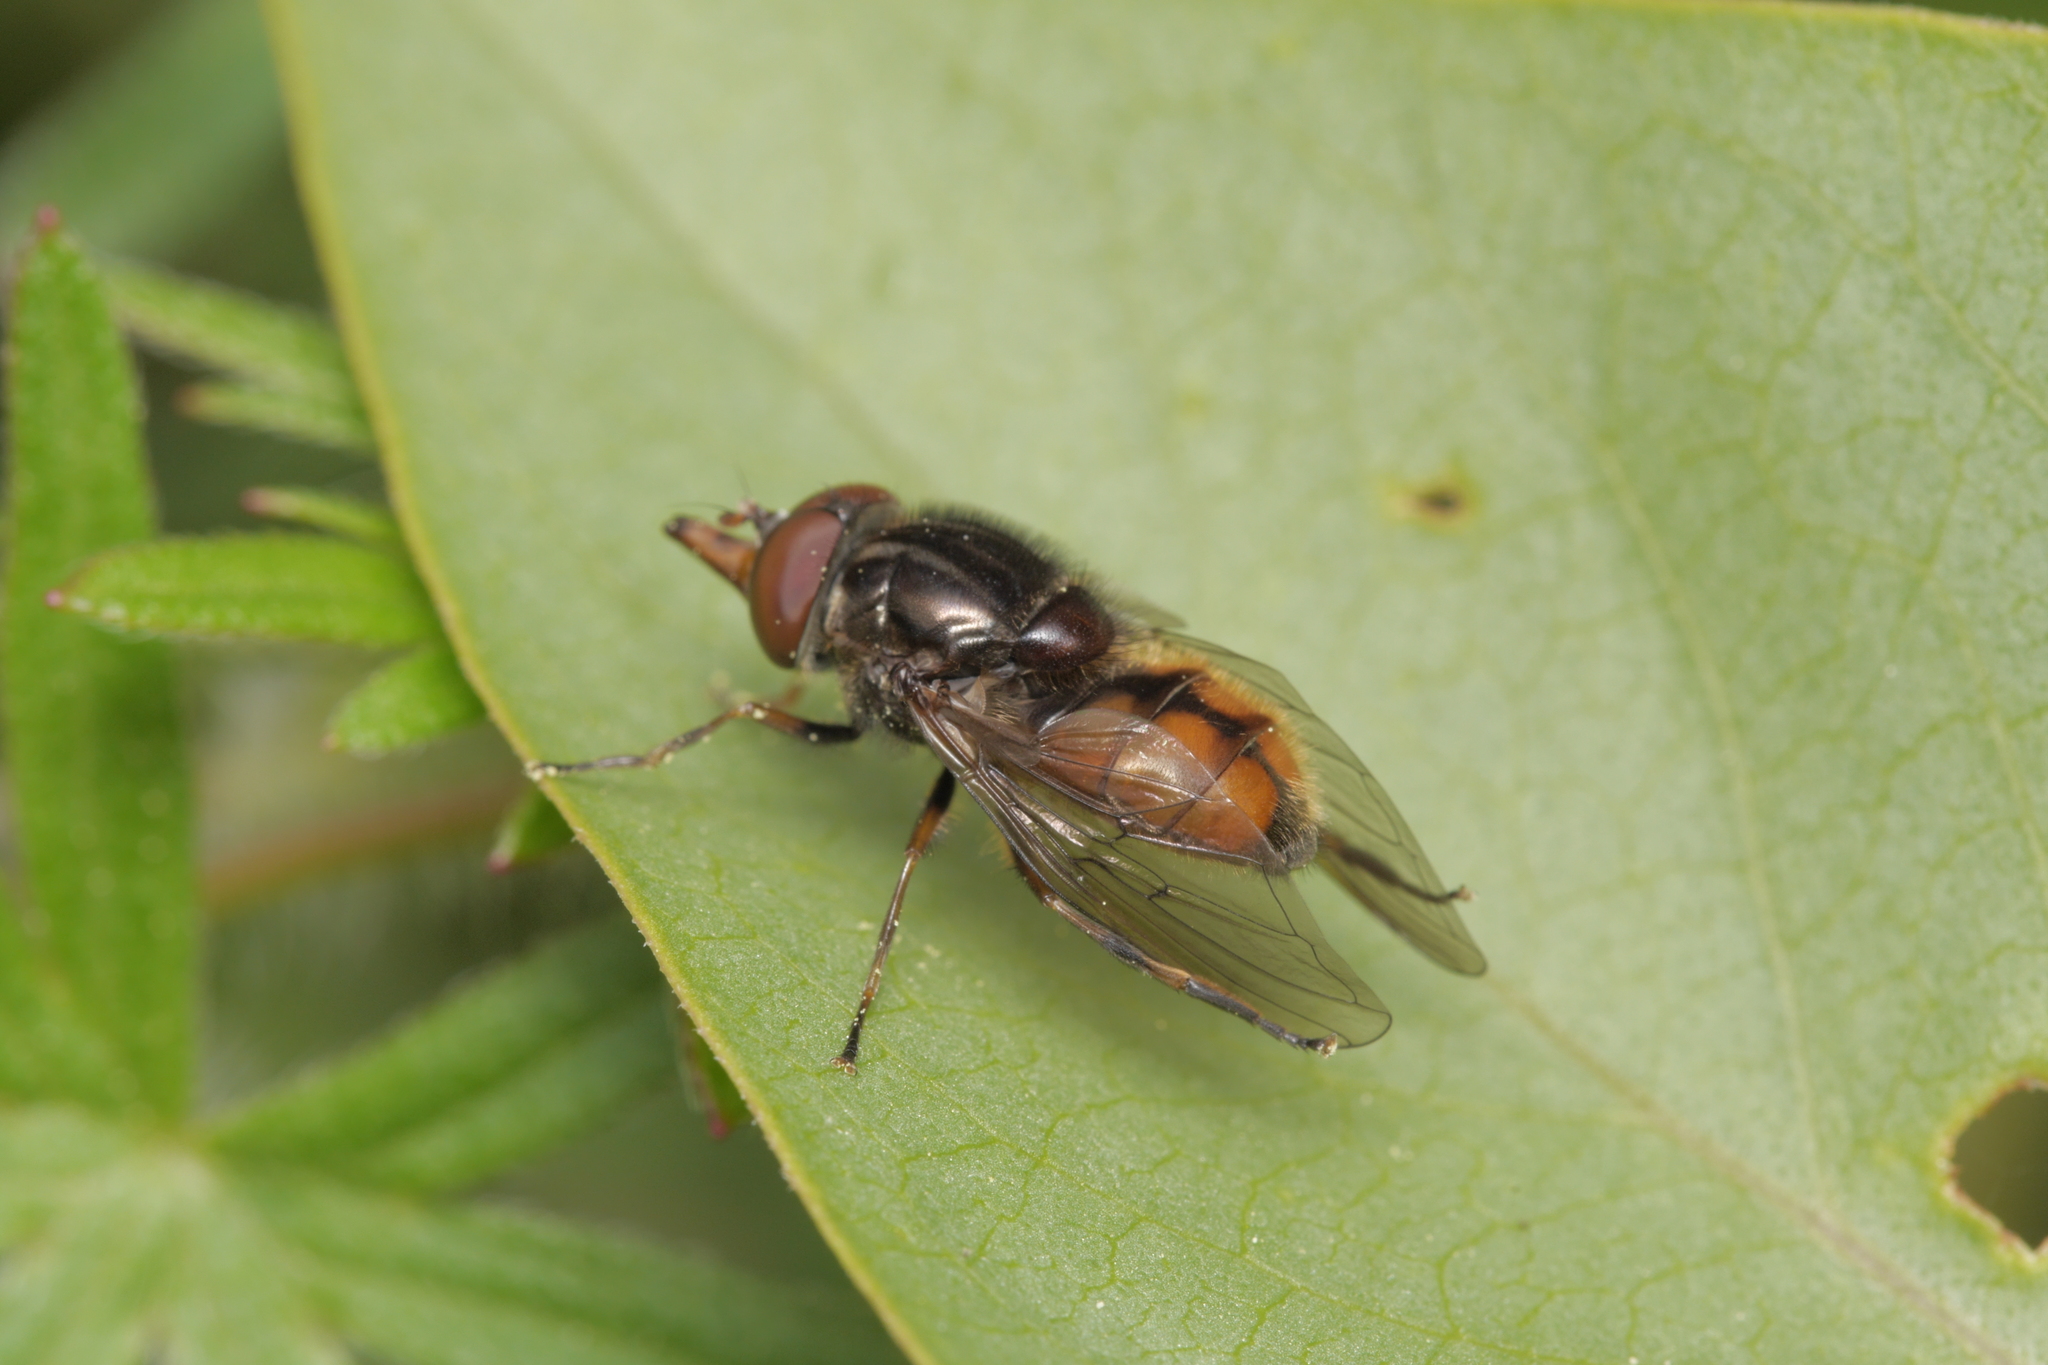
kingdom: Animalia
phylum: Arthropoda
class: Insecta
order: Diptera
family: Syrphidae
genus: Rhingia
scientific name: Rhingia campestris
